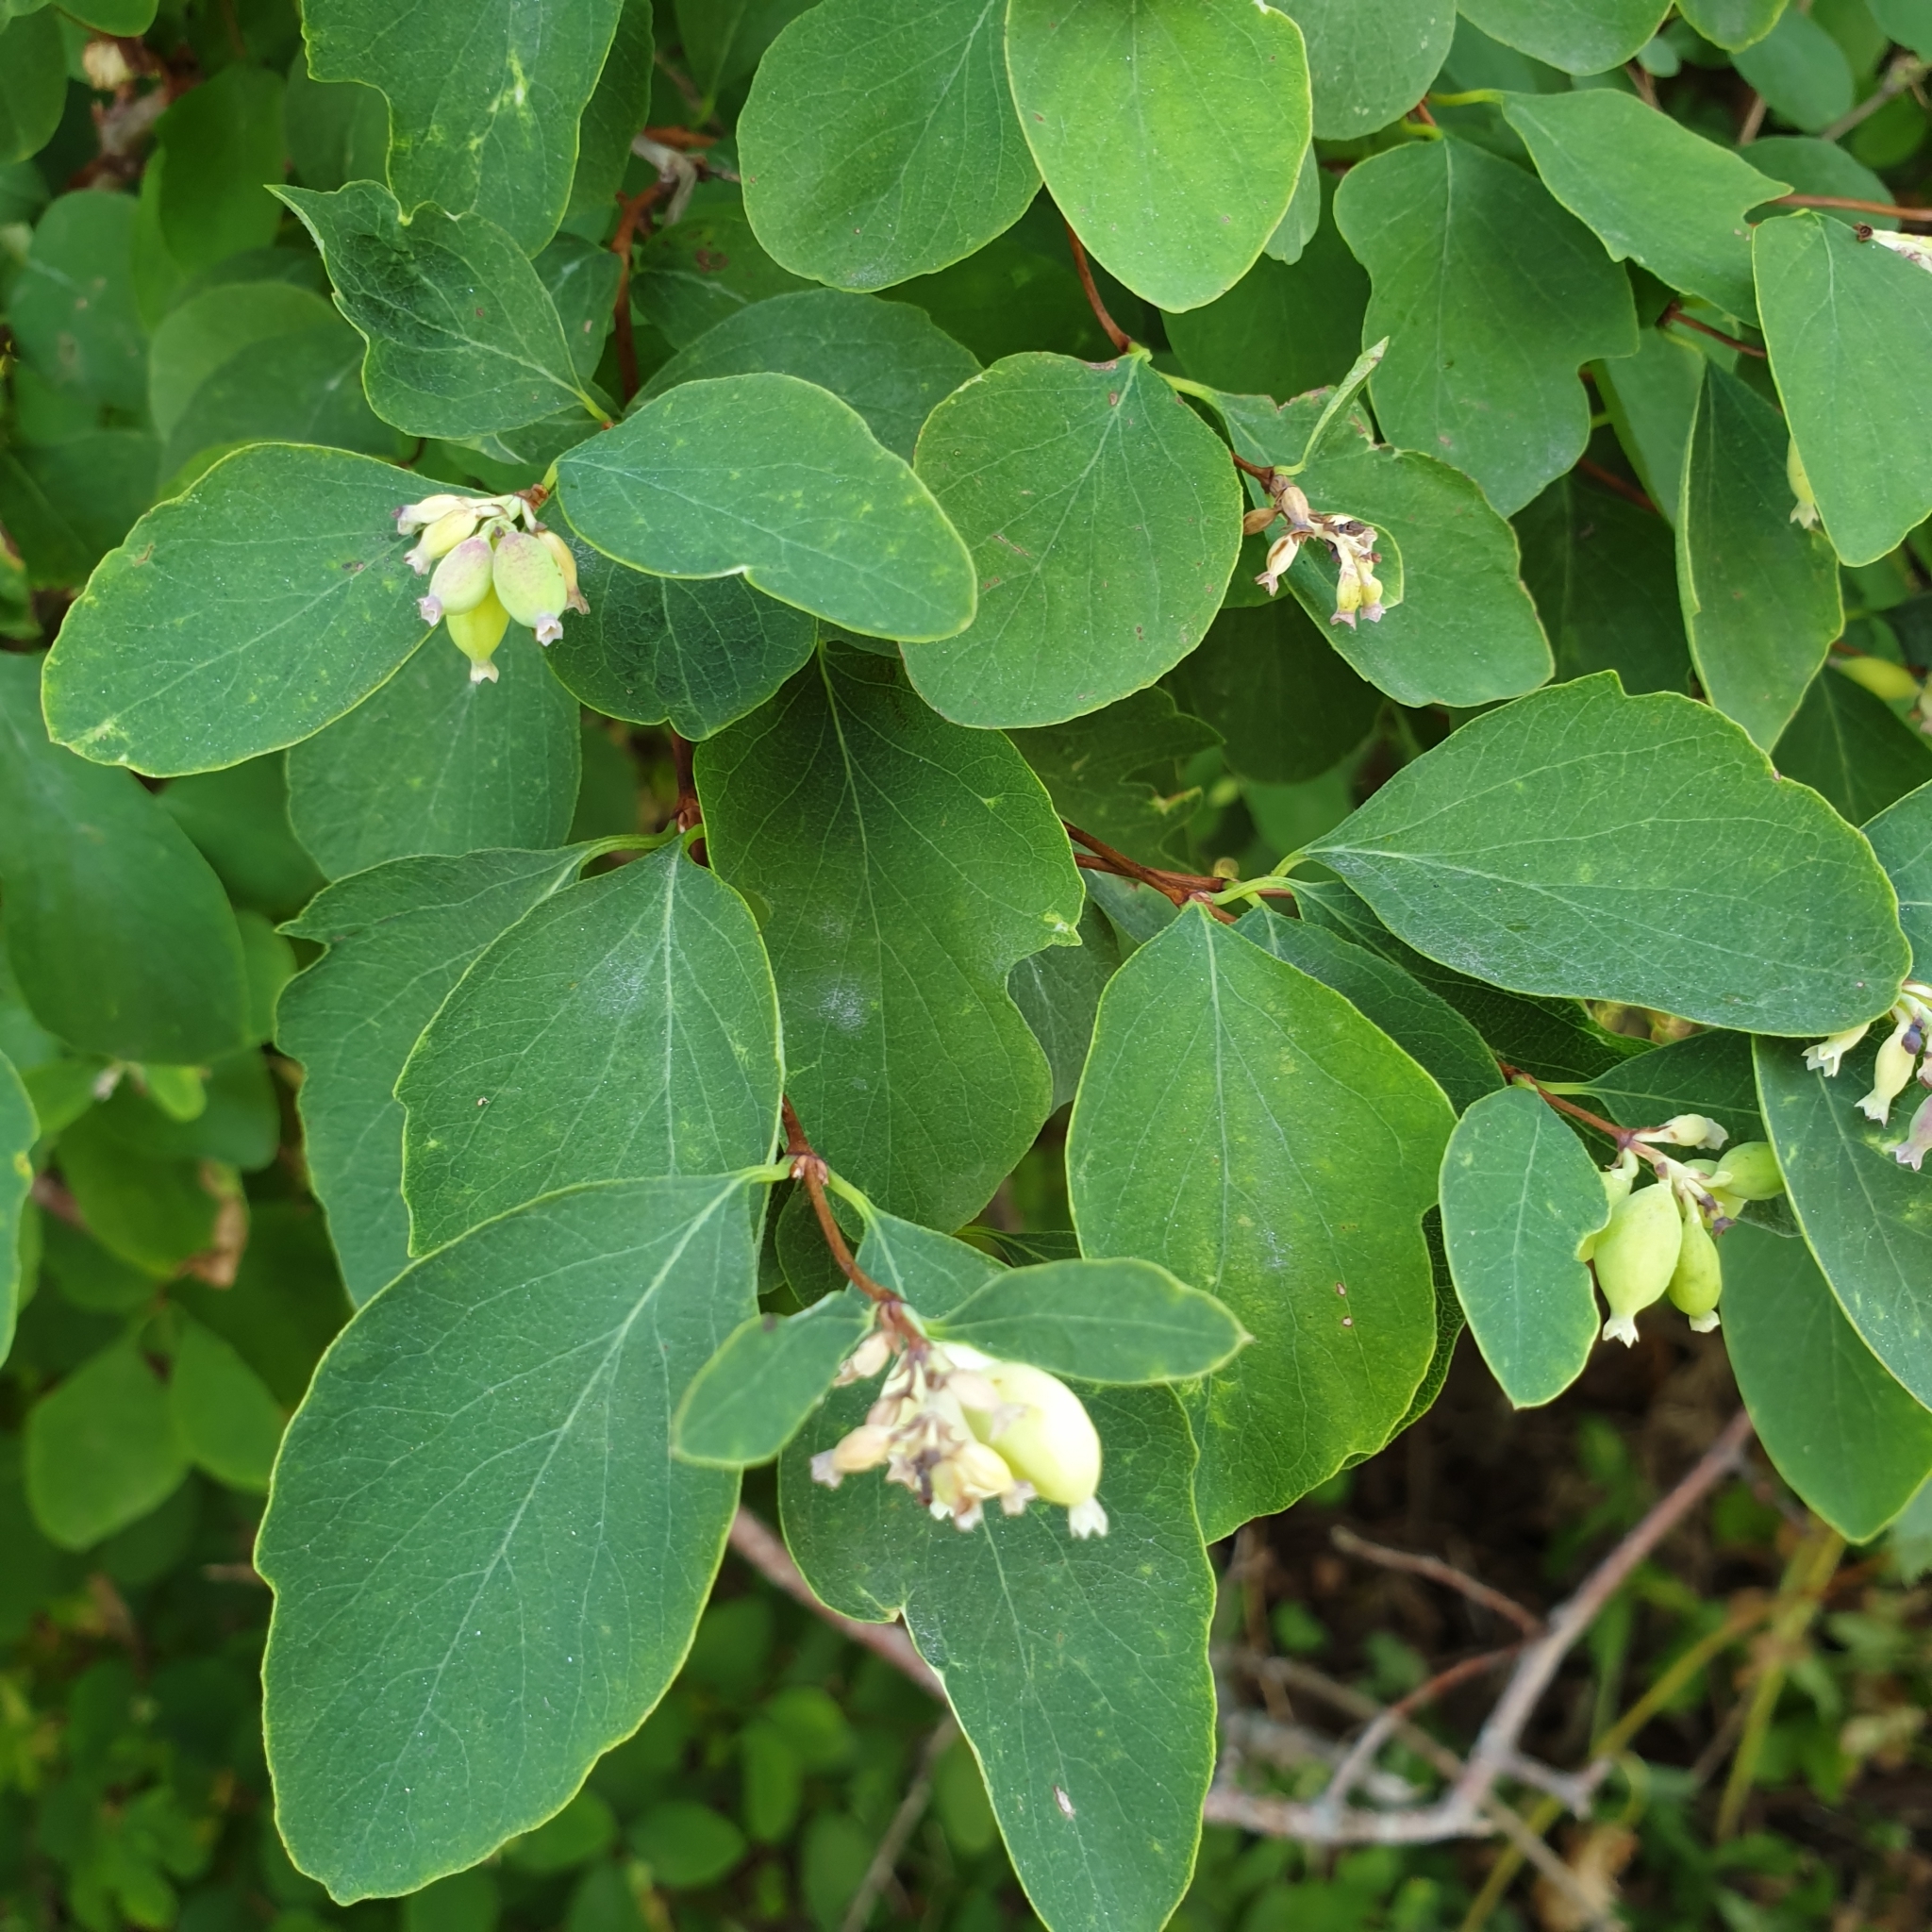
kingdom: Plantae
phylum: Tracheophyta
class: Magnoliopsida
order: Dipsacales
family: Caprifoliaceae
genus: Symphoricarpos
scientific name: Symphoricarpos albus
